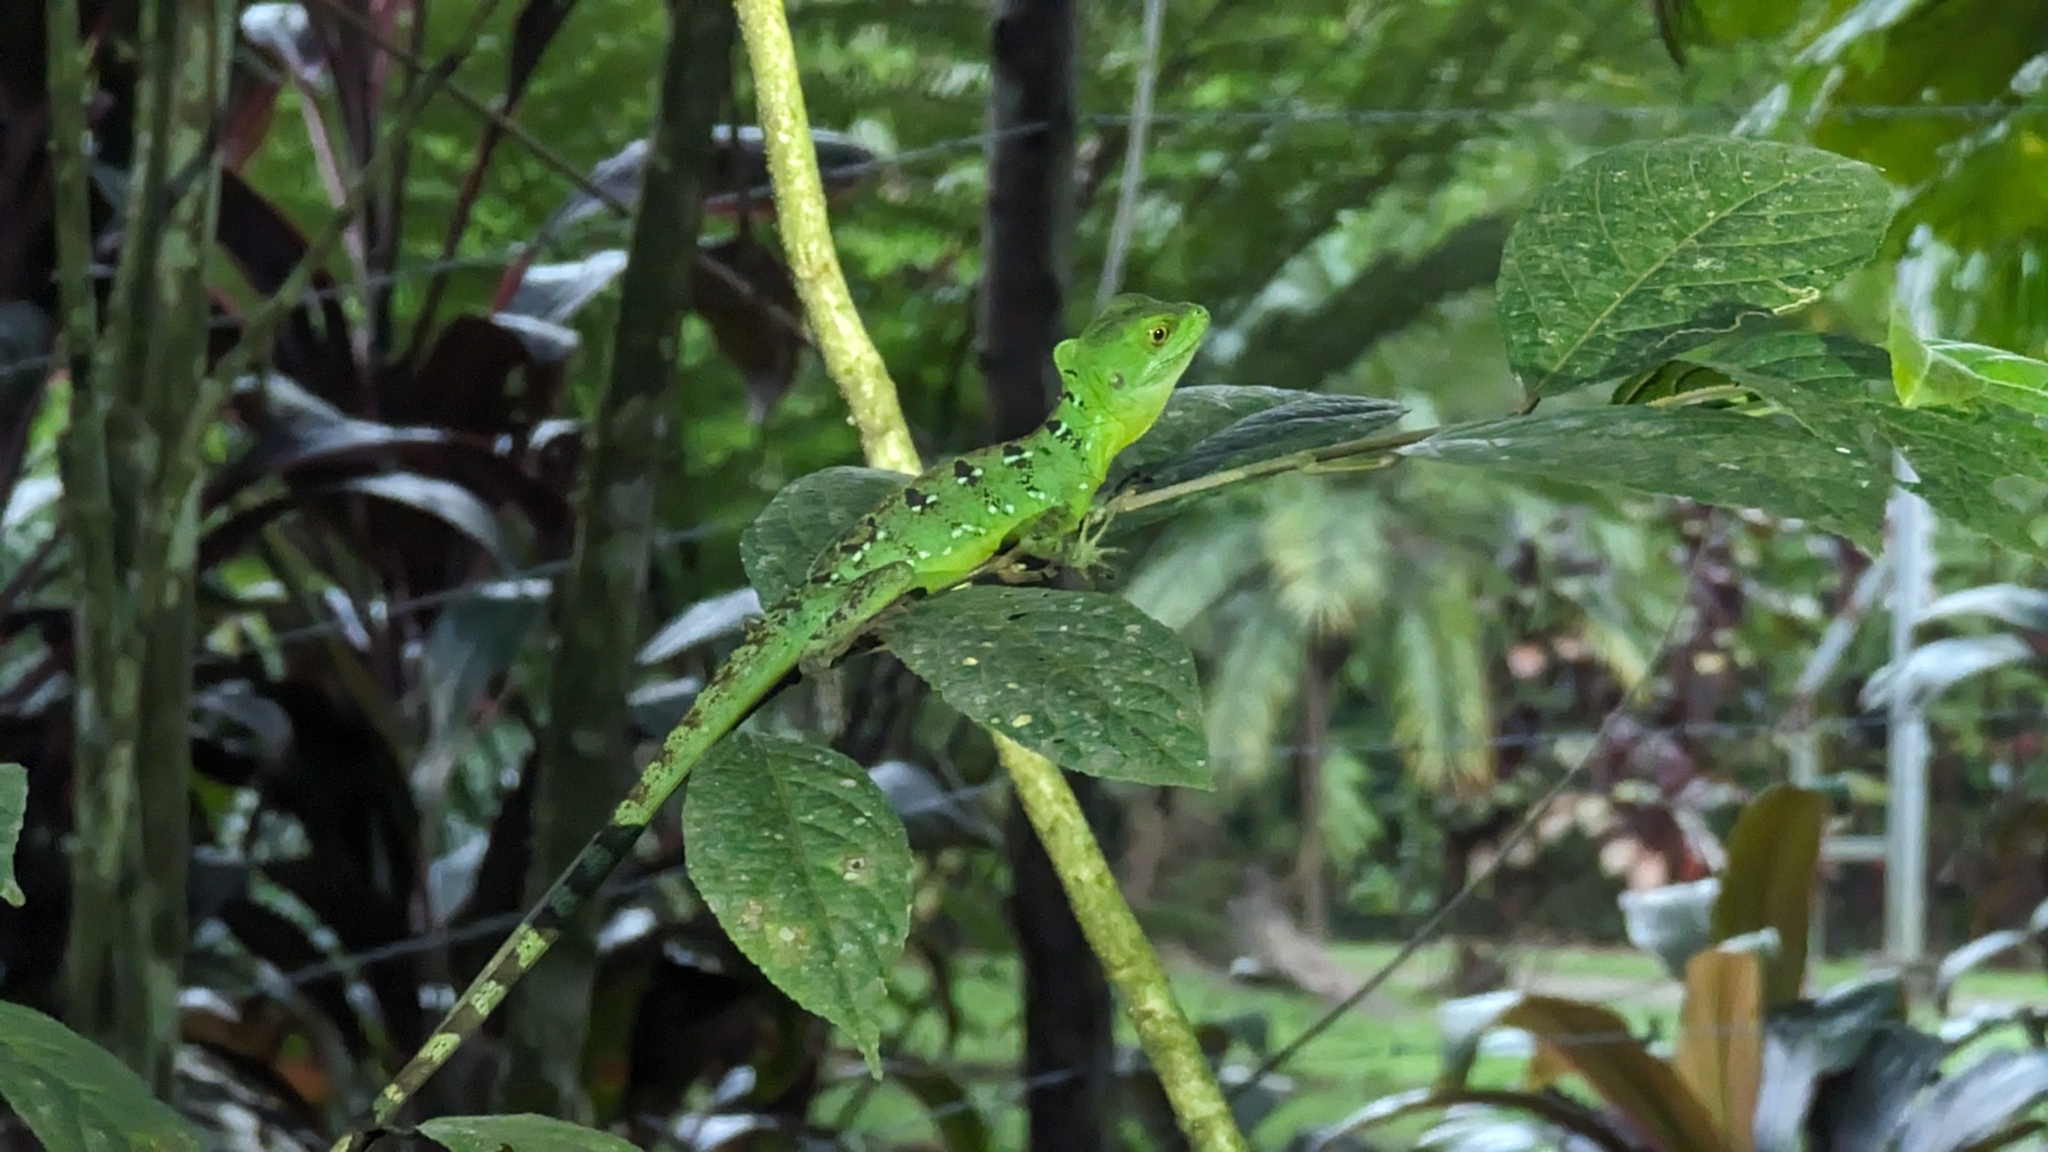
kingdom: Animalia
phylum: Chordata
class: Squamata
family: Corytophanidae
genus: Basiliscus
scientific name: Basiliscus plumifrons
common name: Green basilisk
